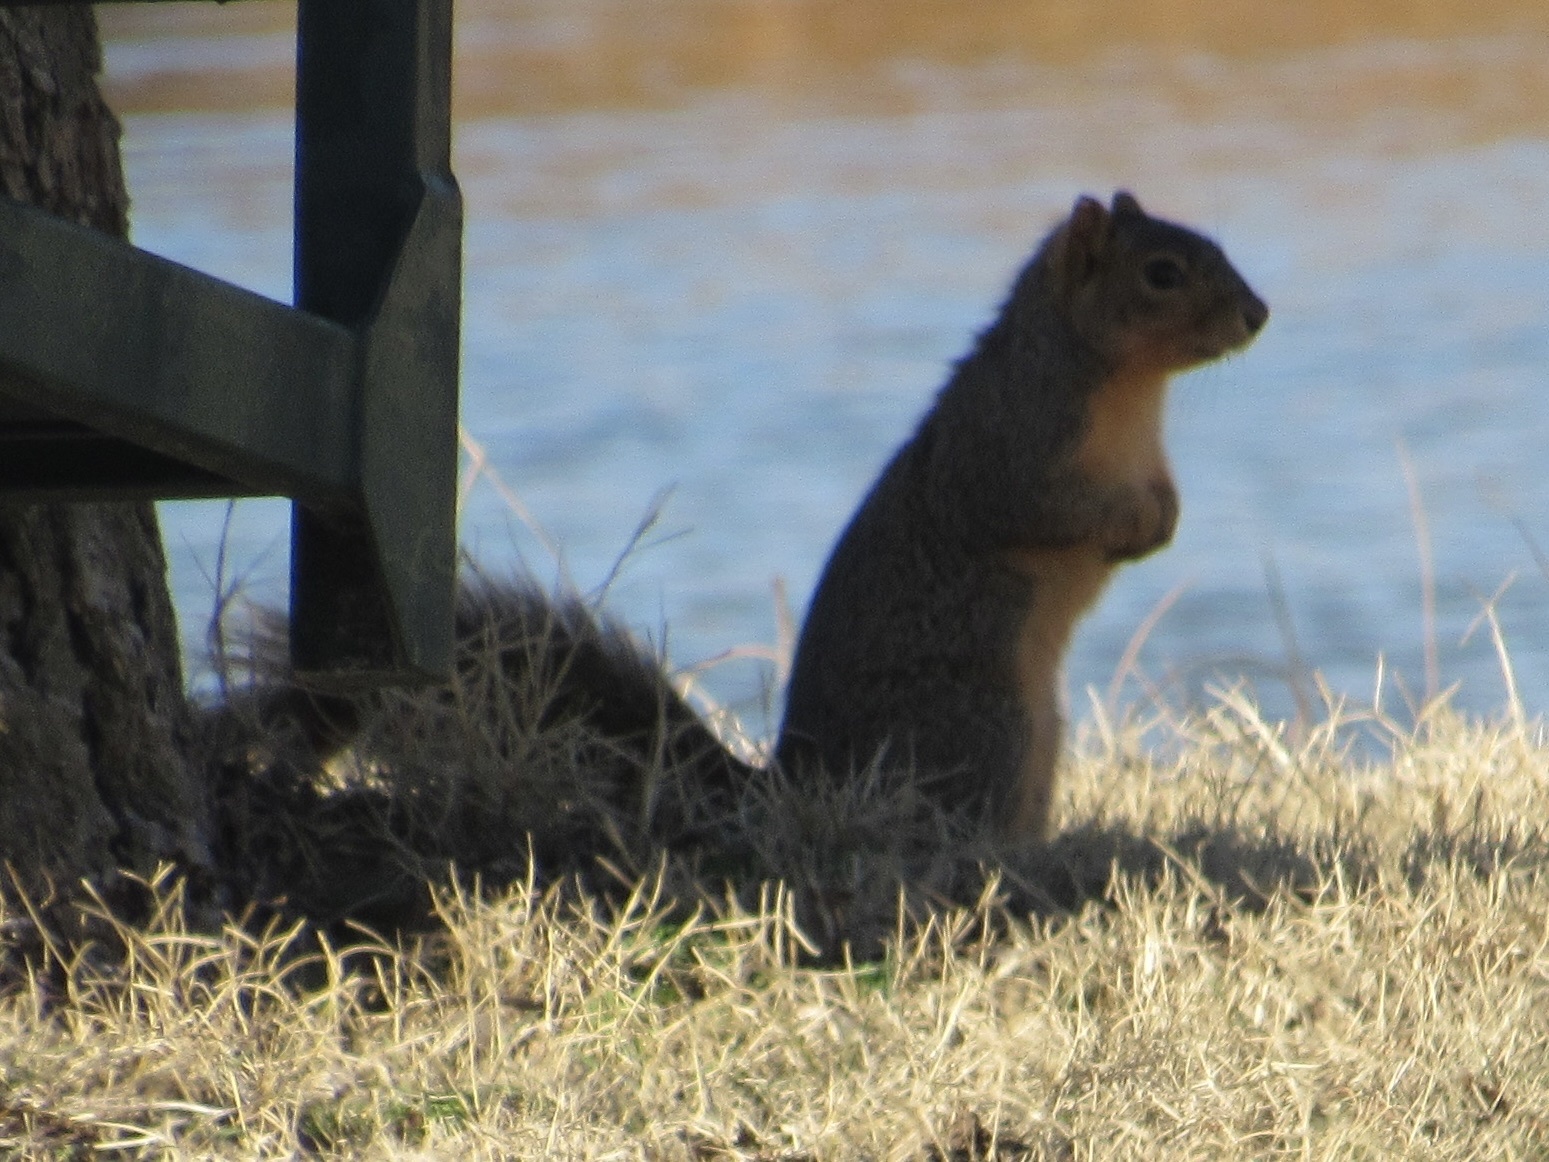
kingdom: Animalia
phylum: Chordata
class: Mammalia
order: Rodentia
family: Sciuridae
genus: Sciurus
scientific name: Sciurus niger
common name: Fox squirrel
